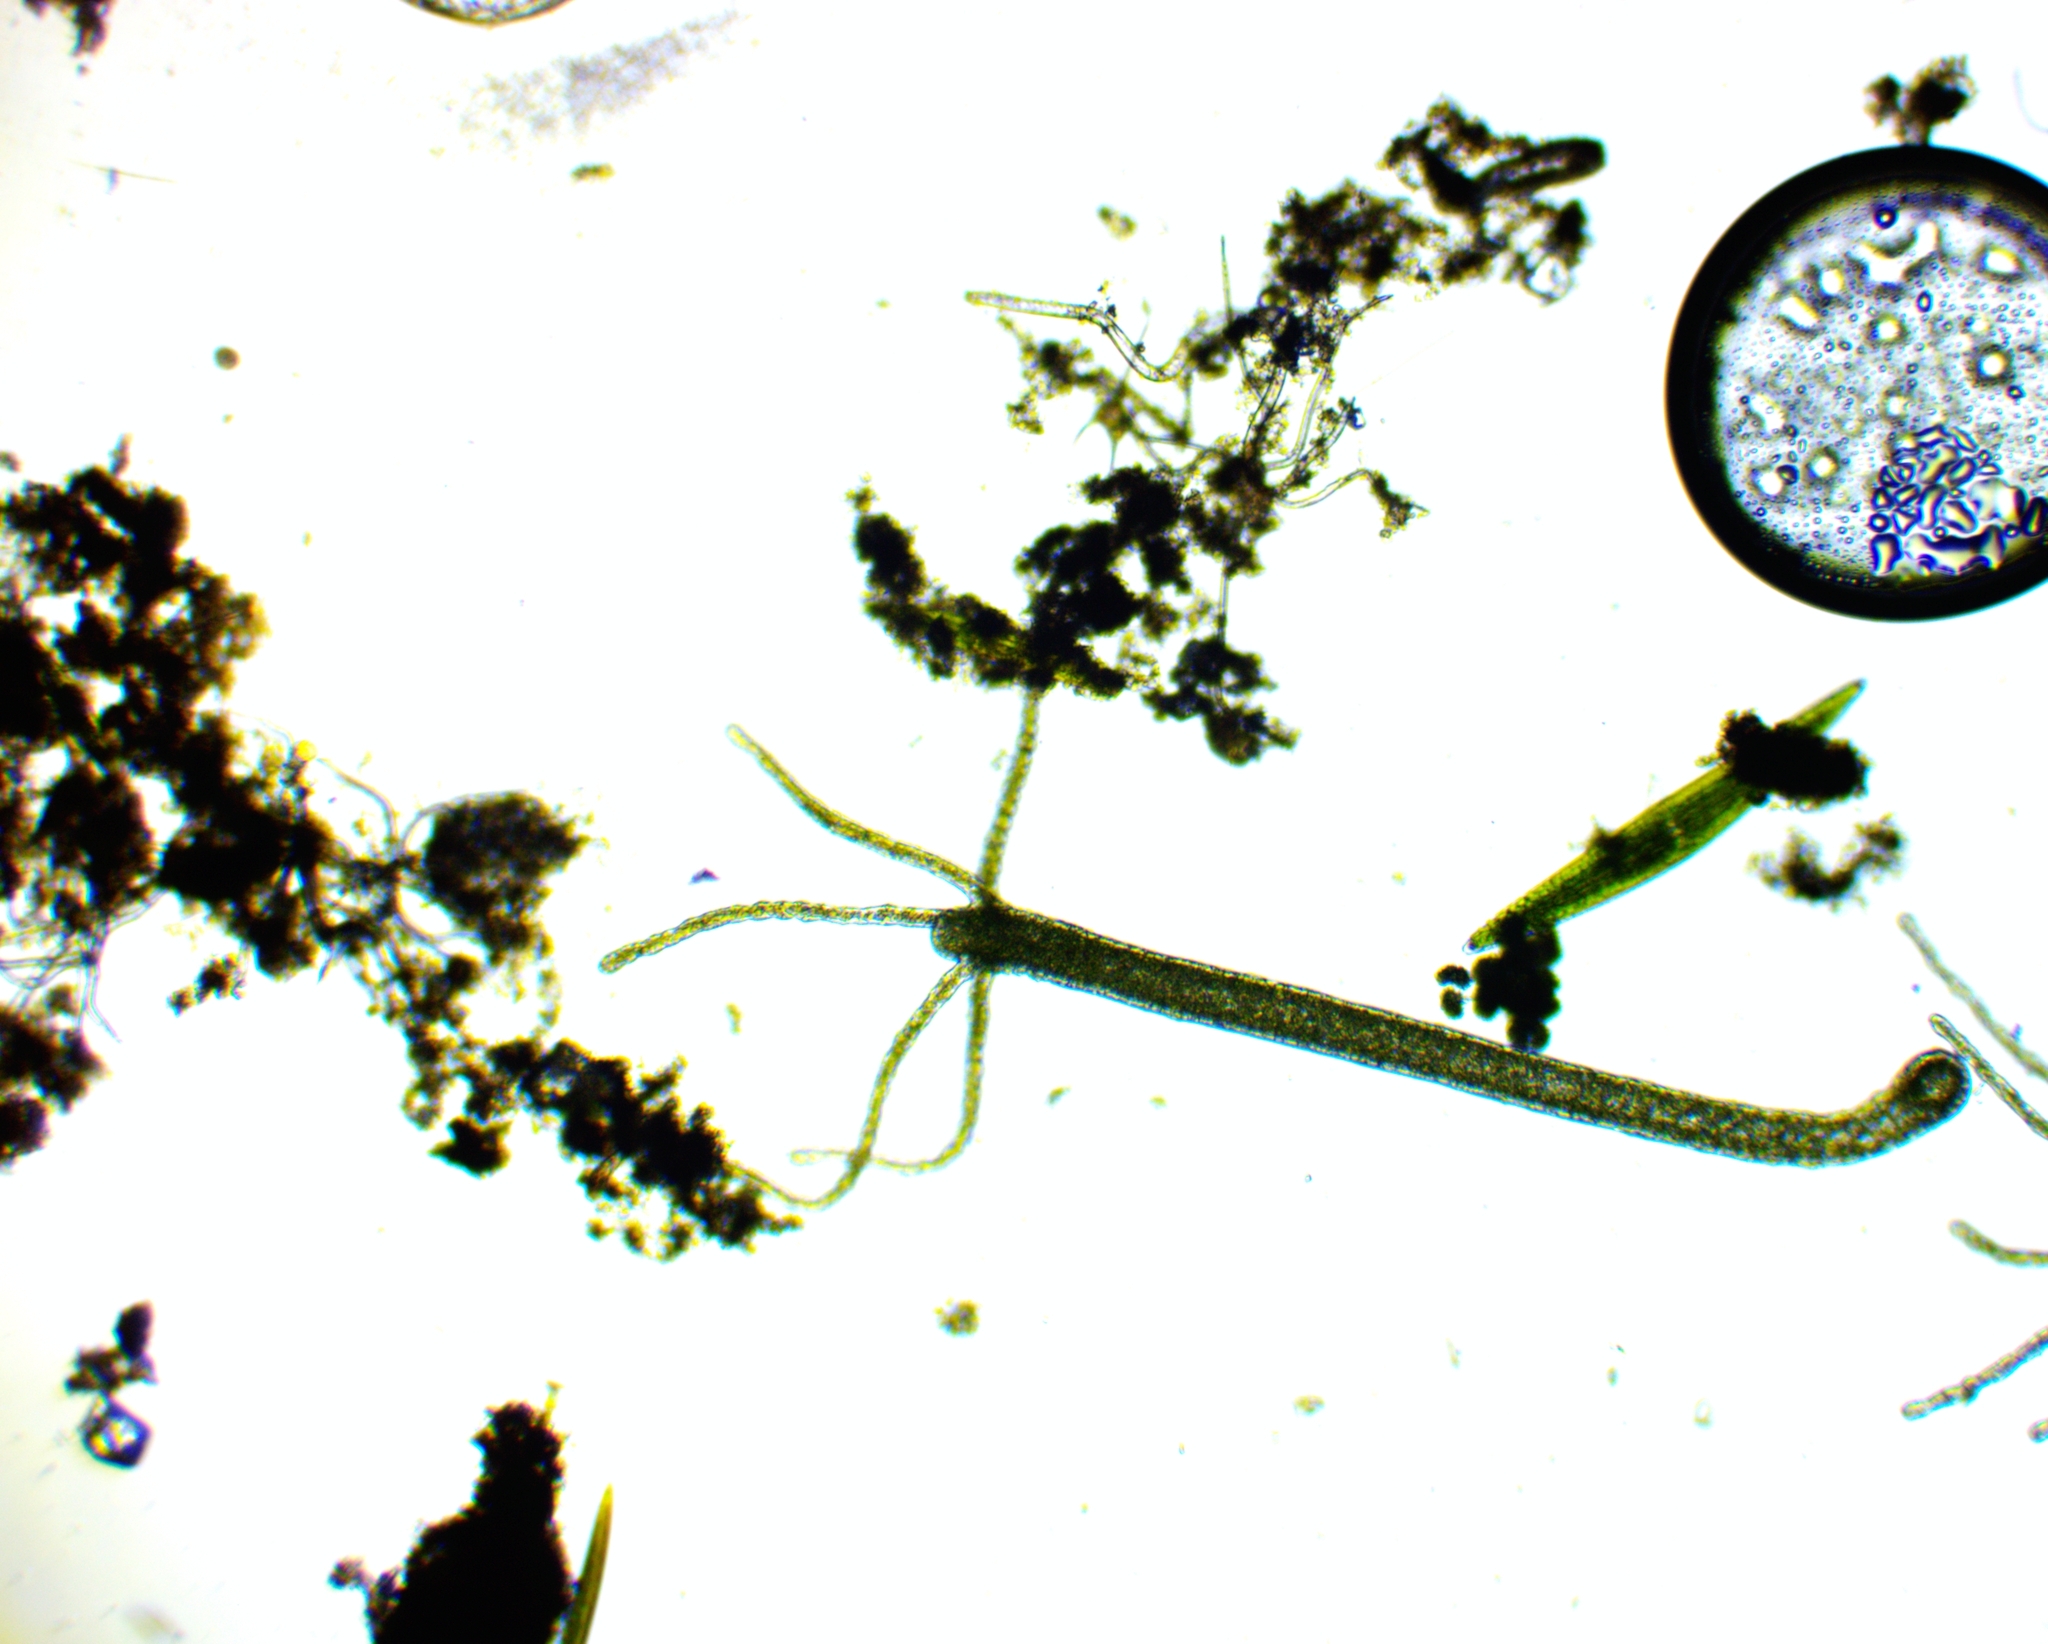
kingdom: Animalia
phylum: Cnidaria
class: Hydrozoa
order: Anthoathecata
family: Hydridae
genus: Hydra
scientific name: Hydra viridissima
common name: Green hydra
